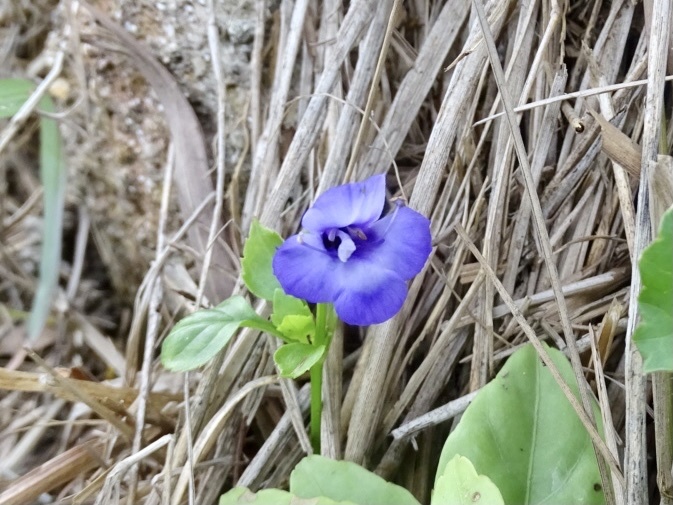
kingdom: Plantae
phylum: Tracheophyta
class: Magnoliopsida
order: Lamiales
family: Linderniaceae
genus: Torenia
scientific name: Torenia concolor
